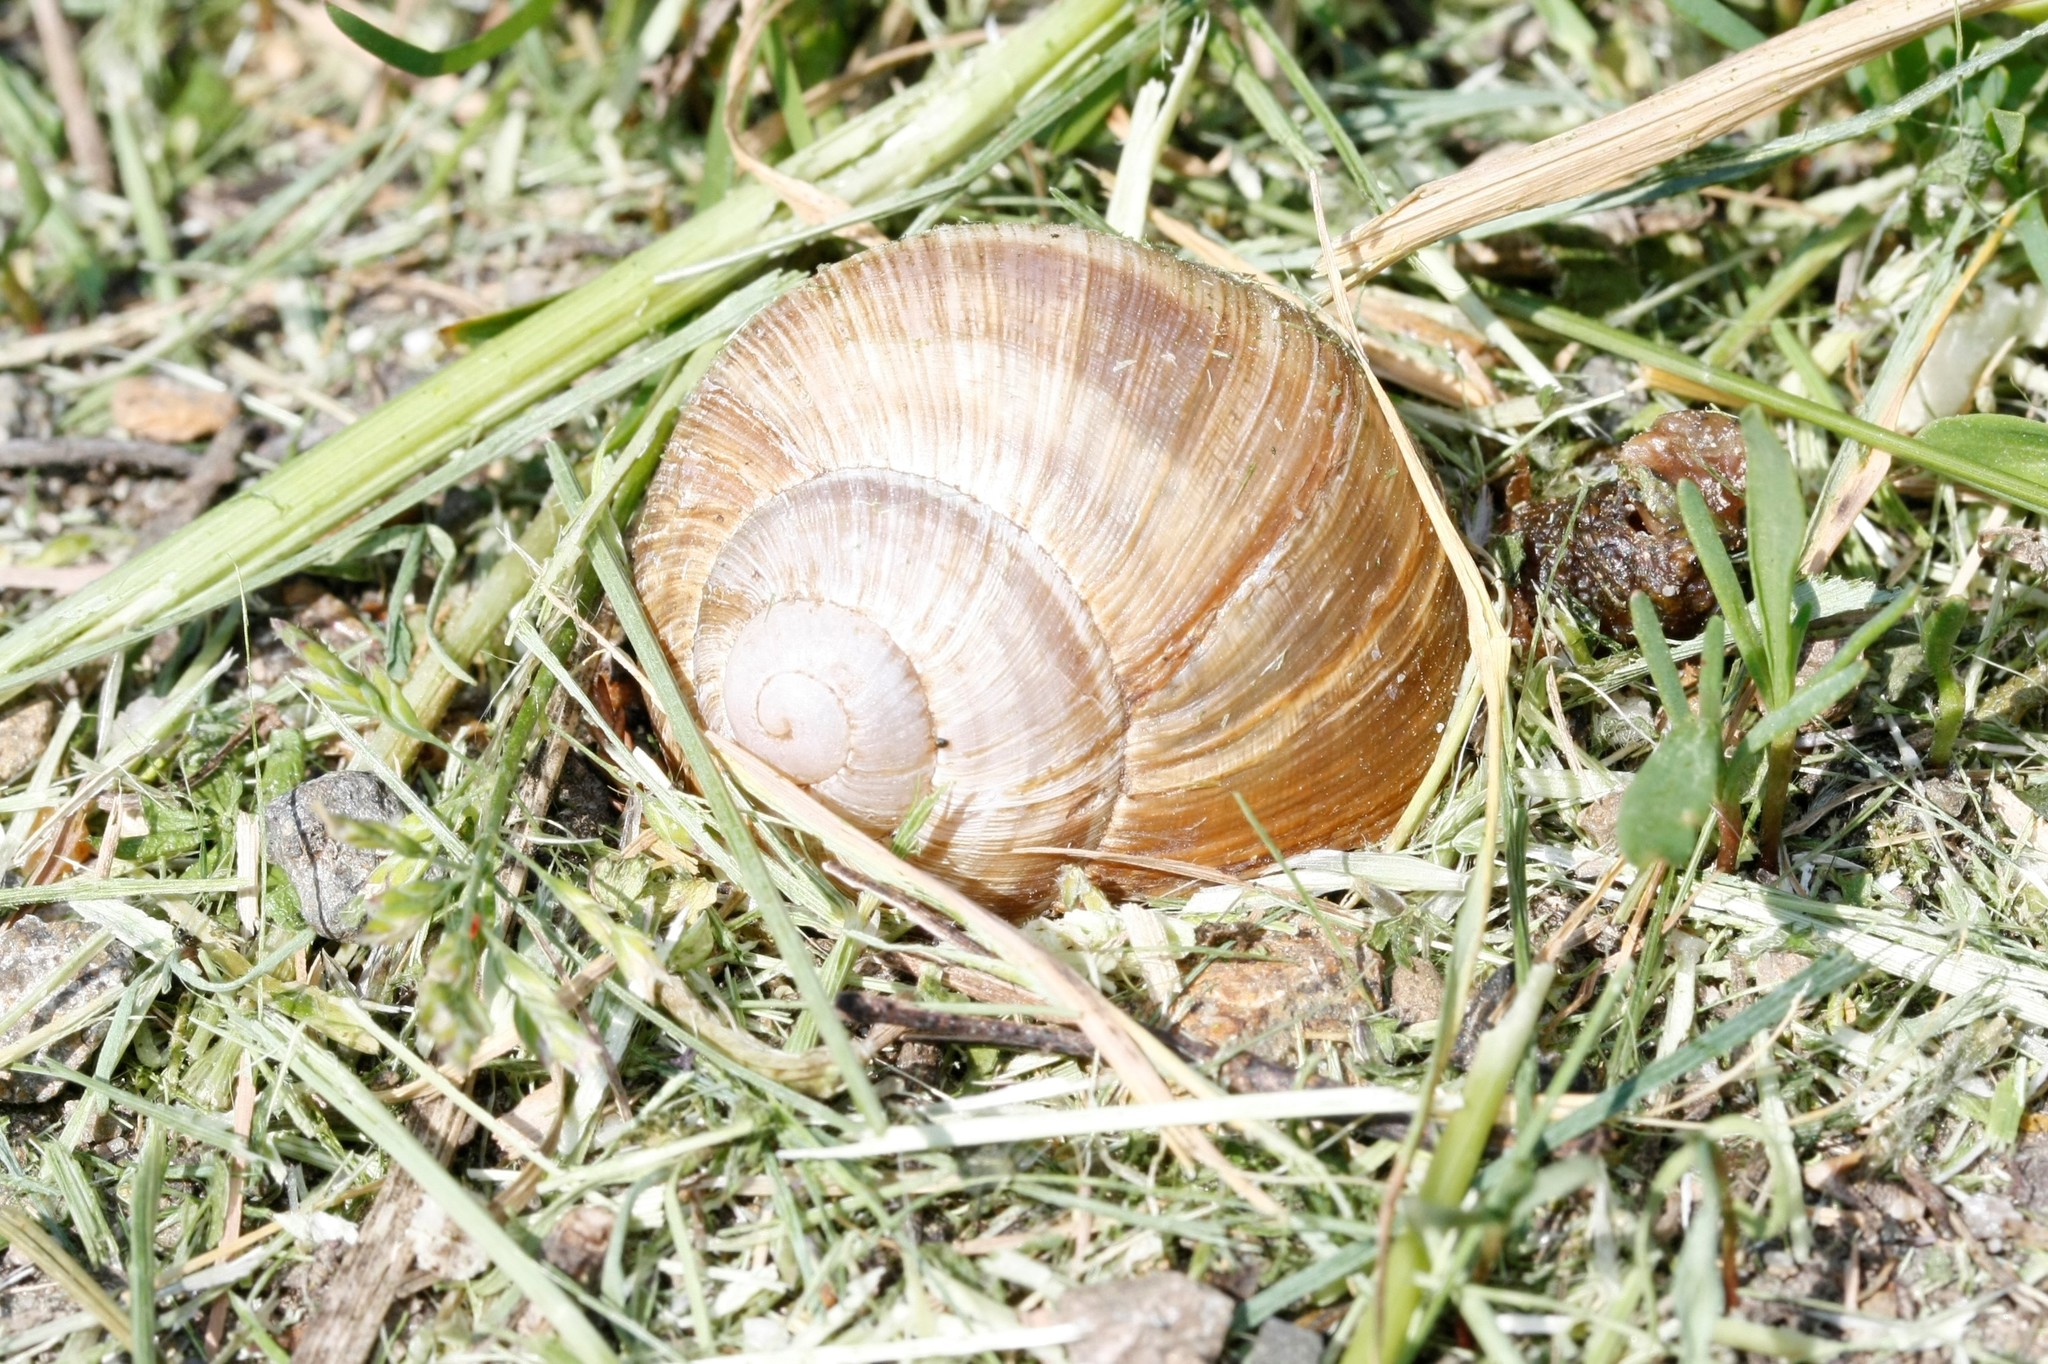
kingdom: Animalia
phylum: Mollusca
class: Gastropoda
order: Stylommatophora
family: Helicidae
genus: Helix
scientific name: Helix pomatia
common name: Roman snail
